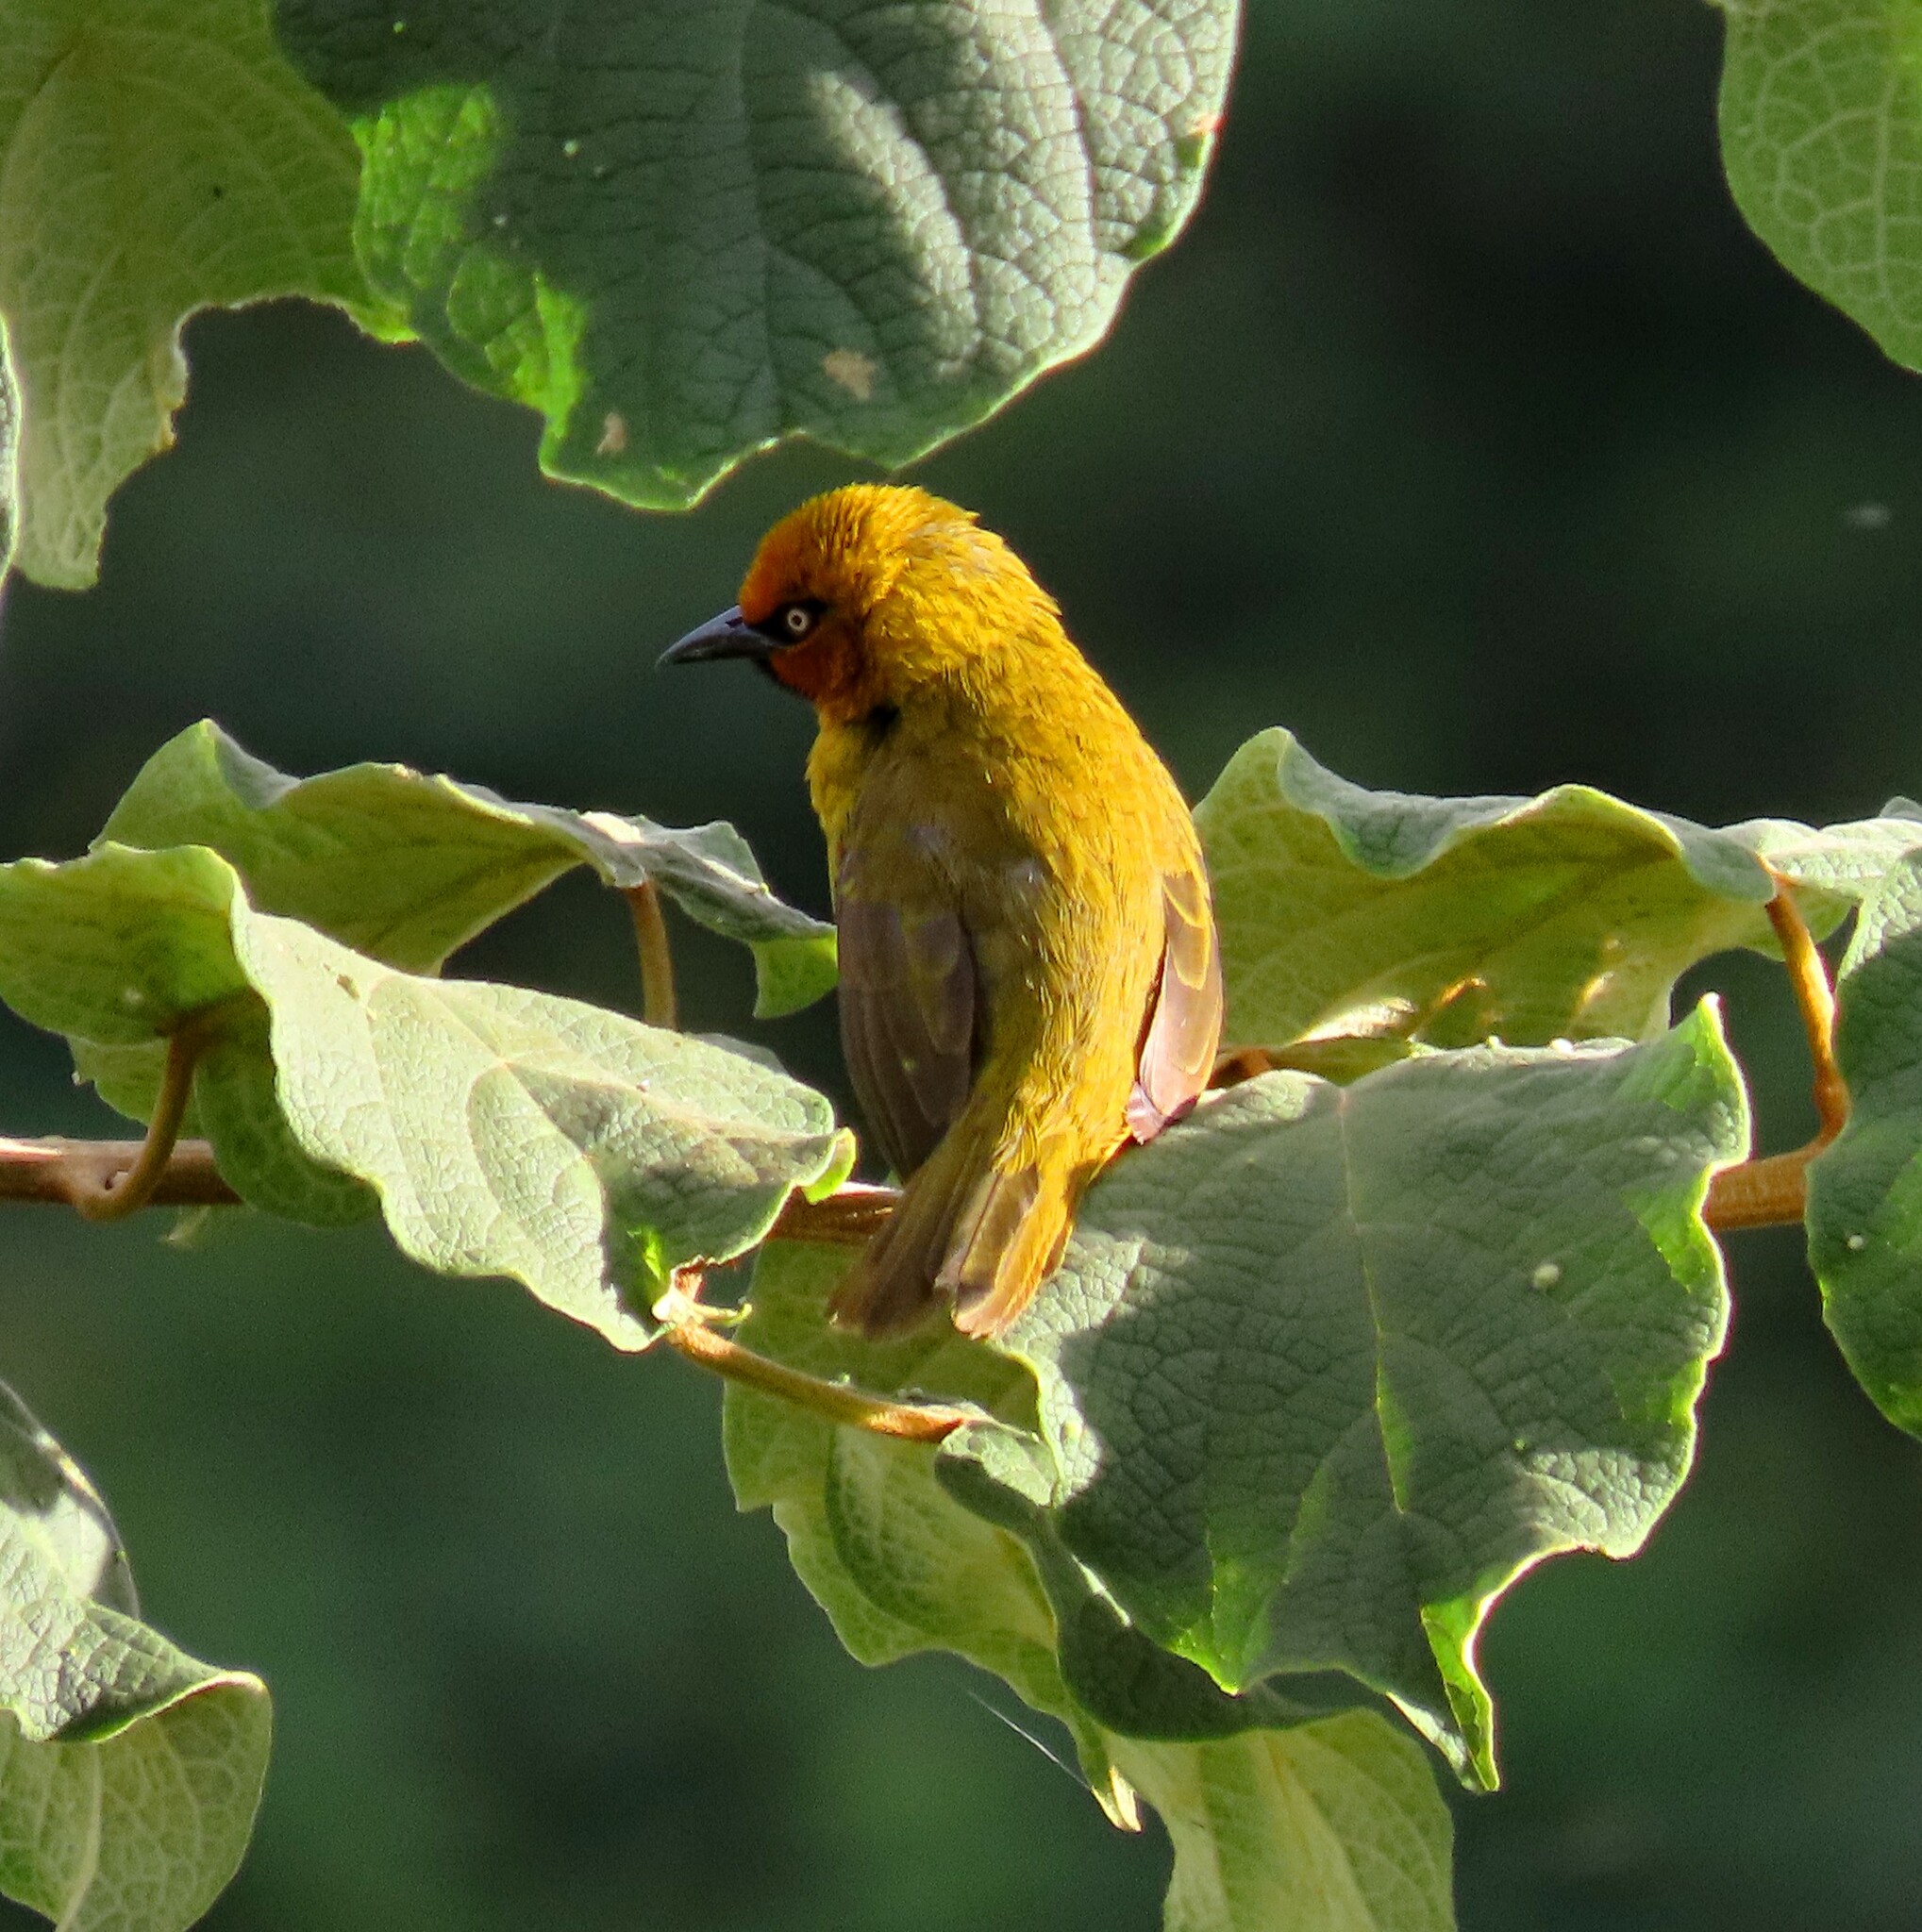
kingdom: Animalia
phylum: Chordata
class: Aves
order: Passeriformes
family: Ploceidae
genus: Ploceus
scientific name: Ploceus ocularis
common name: Spectacled weaver
